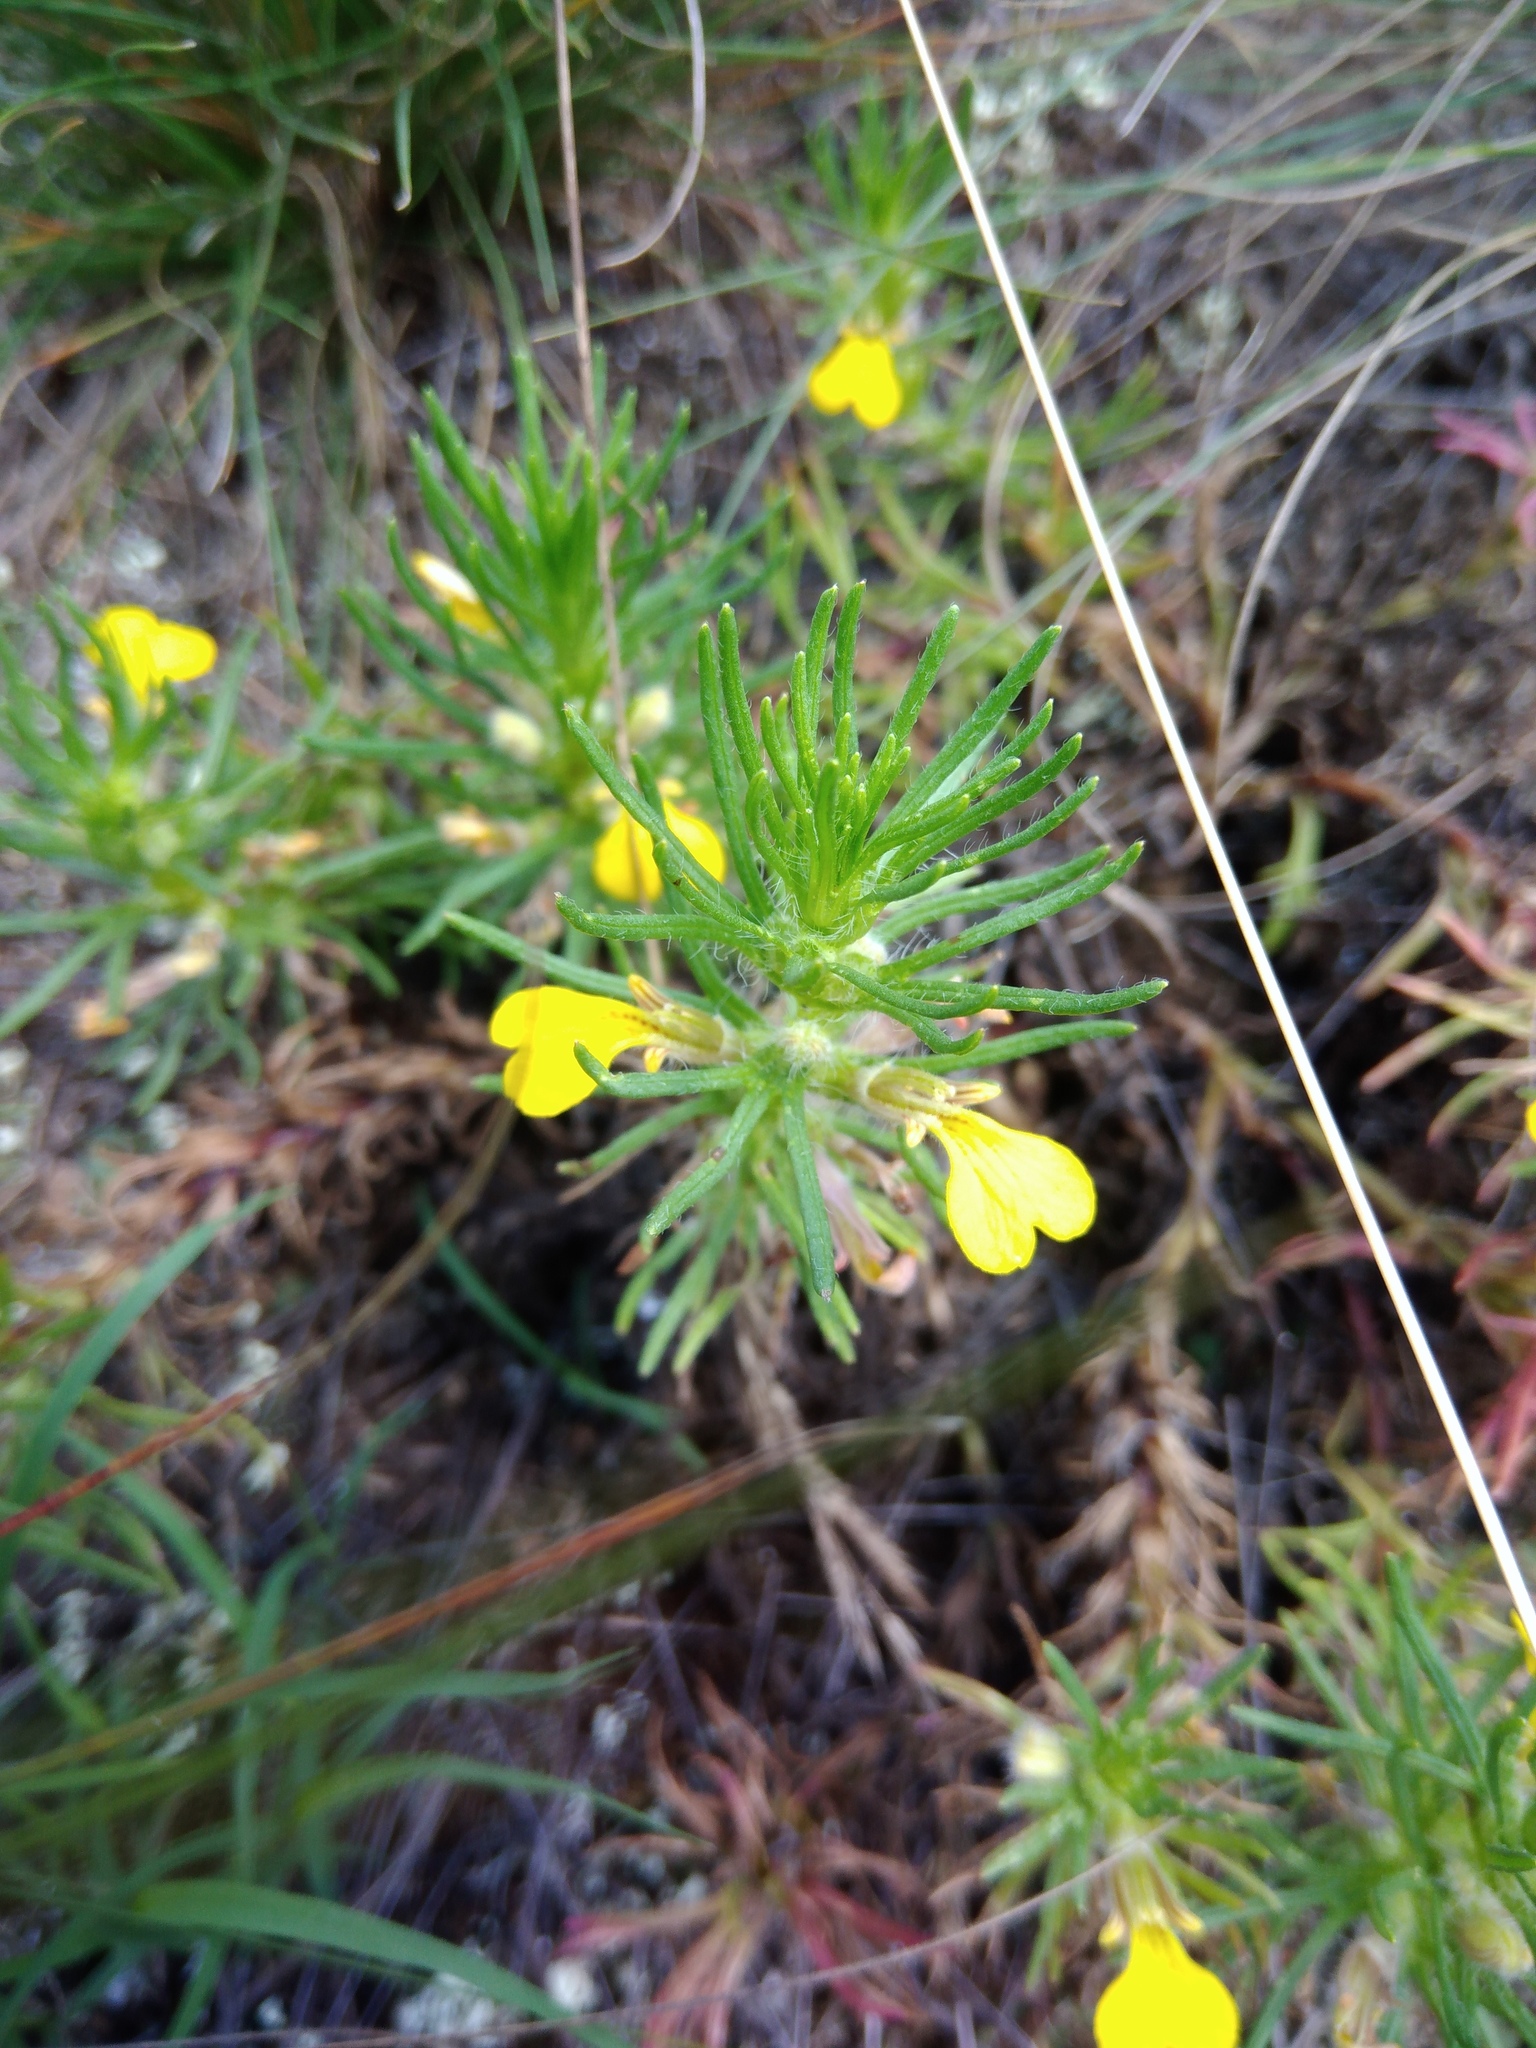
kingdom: Plantae
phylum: Tracheophyta
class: Magnoliopsida
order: Lamiales
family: Lamiaceae
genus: Ajuga
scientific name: Ajuga chamaepitys
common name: Ground-pine
